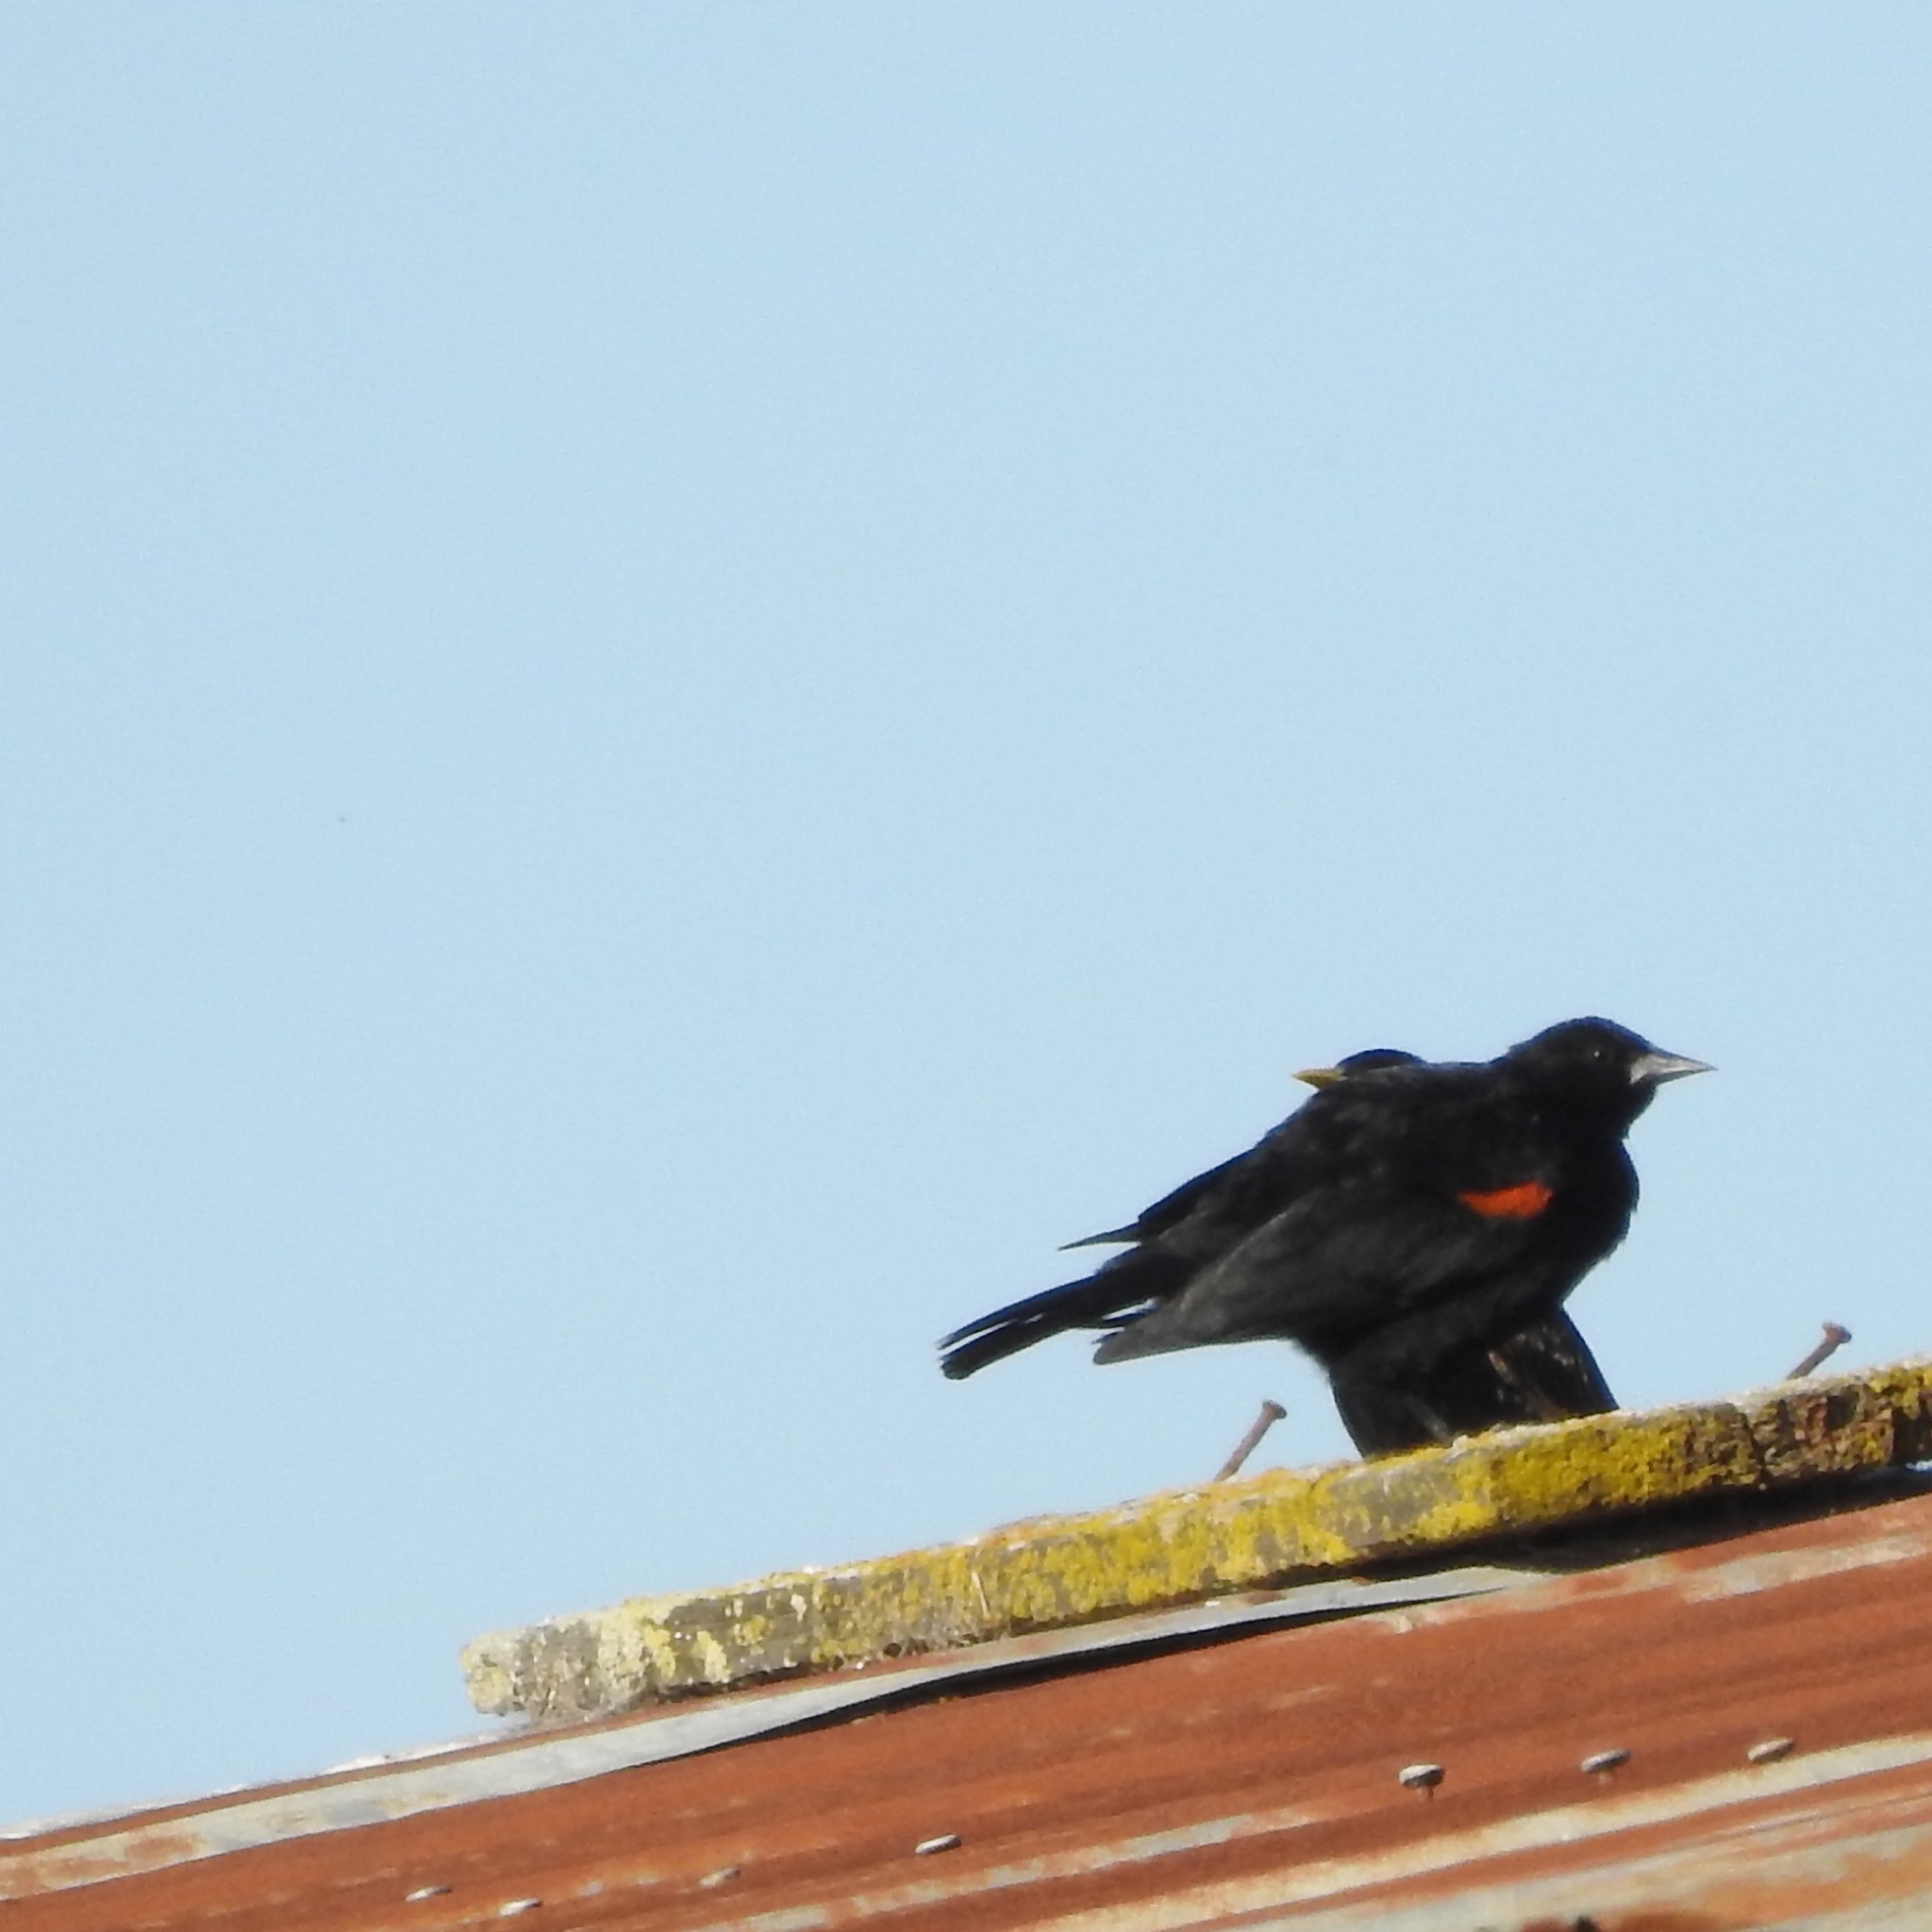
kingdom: Animalia
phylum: Chordata
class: Aves
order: Passeriformes
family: Icteridae
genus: Agelaius
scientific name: Agelaius phoeniceus
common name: Red-winged blackbird
